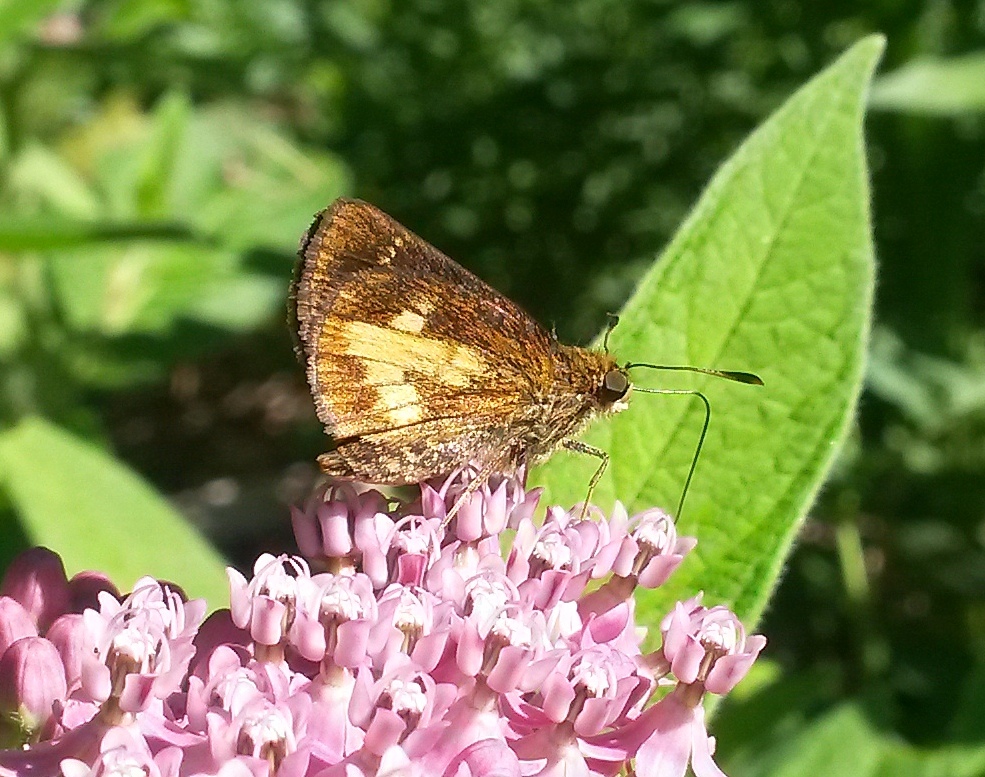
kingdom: Animalia
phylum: Arthropoda
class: Insecta
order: Lepidoptera
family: Hesperiidae
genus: Poanes
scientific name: Poanes massasoit
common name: Mulberrywing
